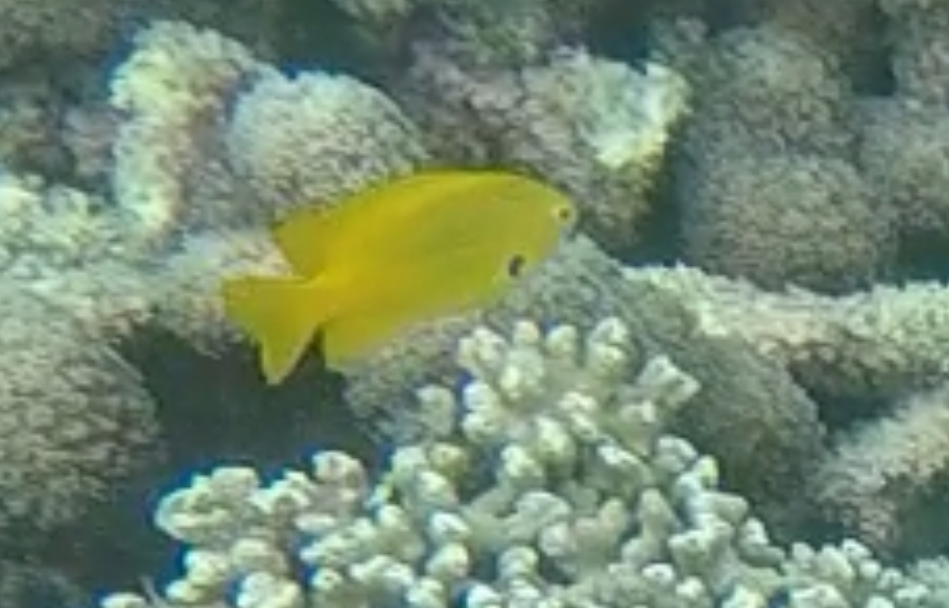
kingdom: Animalia
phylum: Chordata
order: Perciformes
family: Pomacentridae
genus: Pomacentrus
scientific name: Pomacentrus sulfureus
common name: Sulfur damsel
